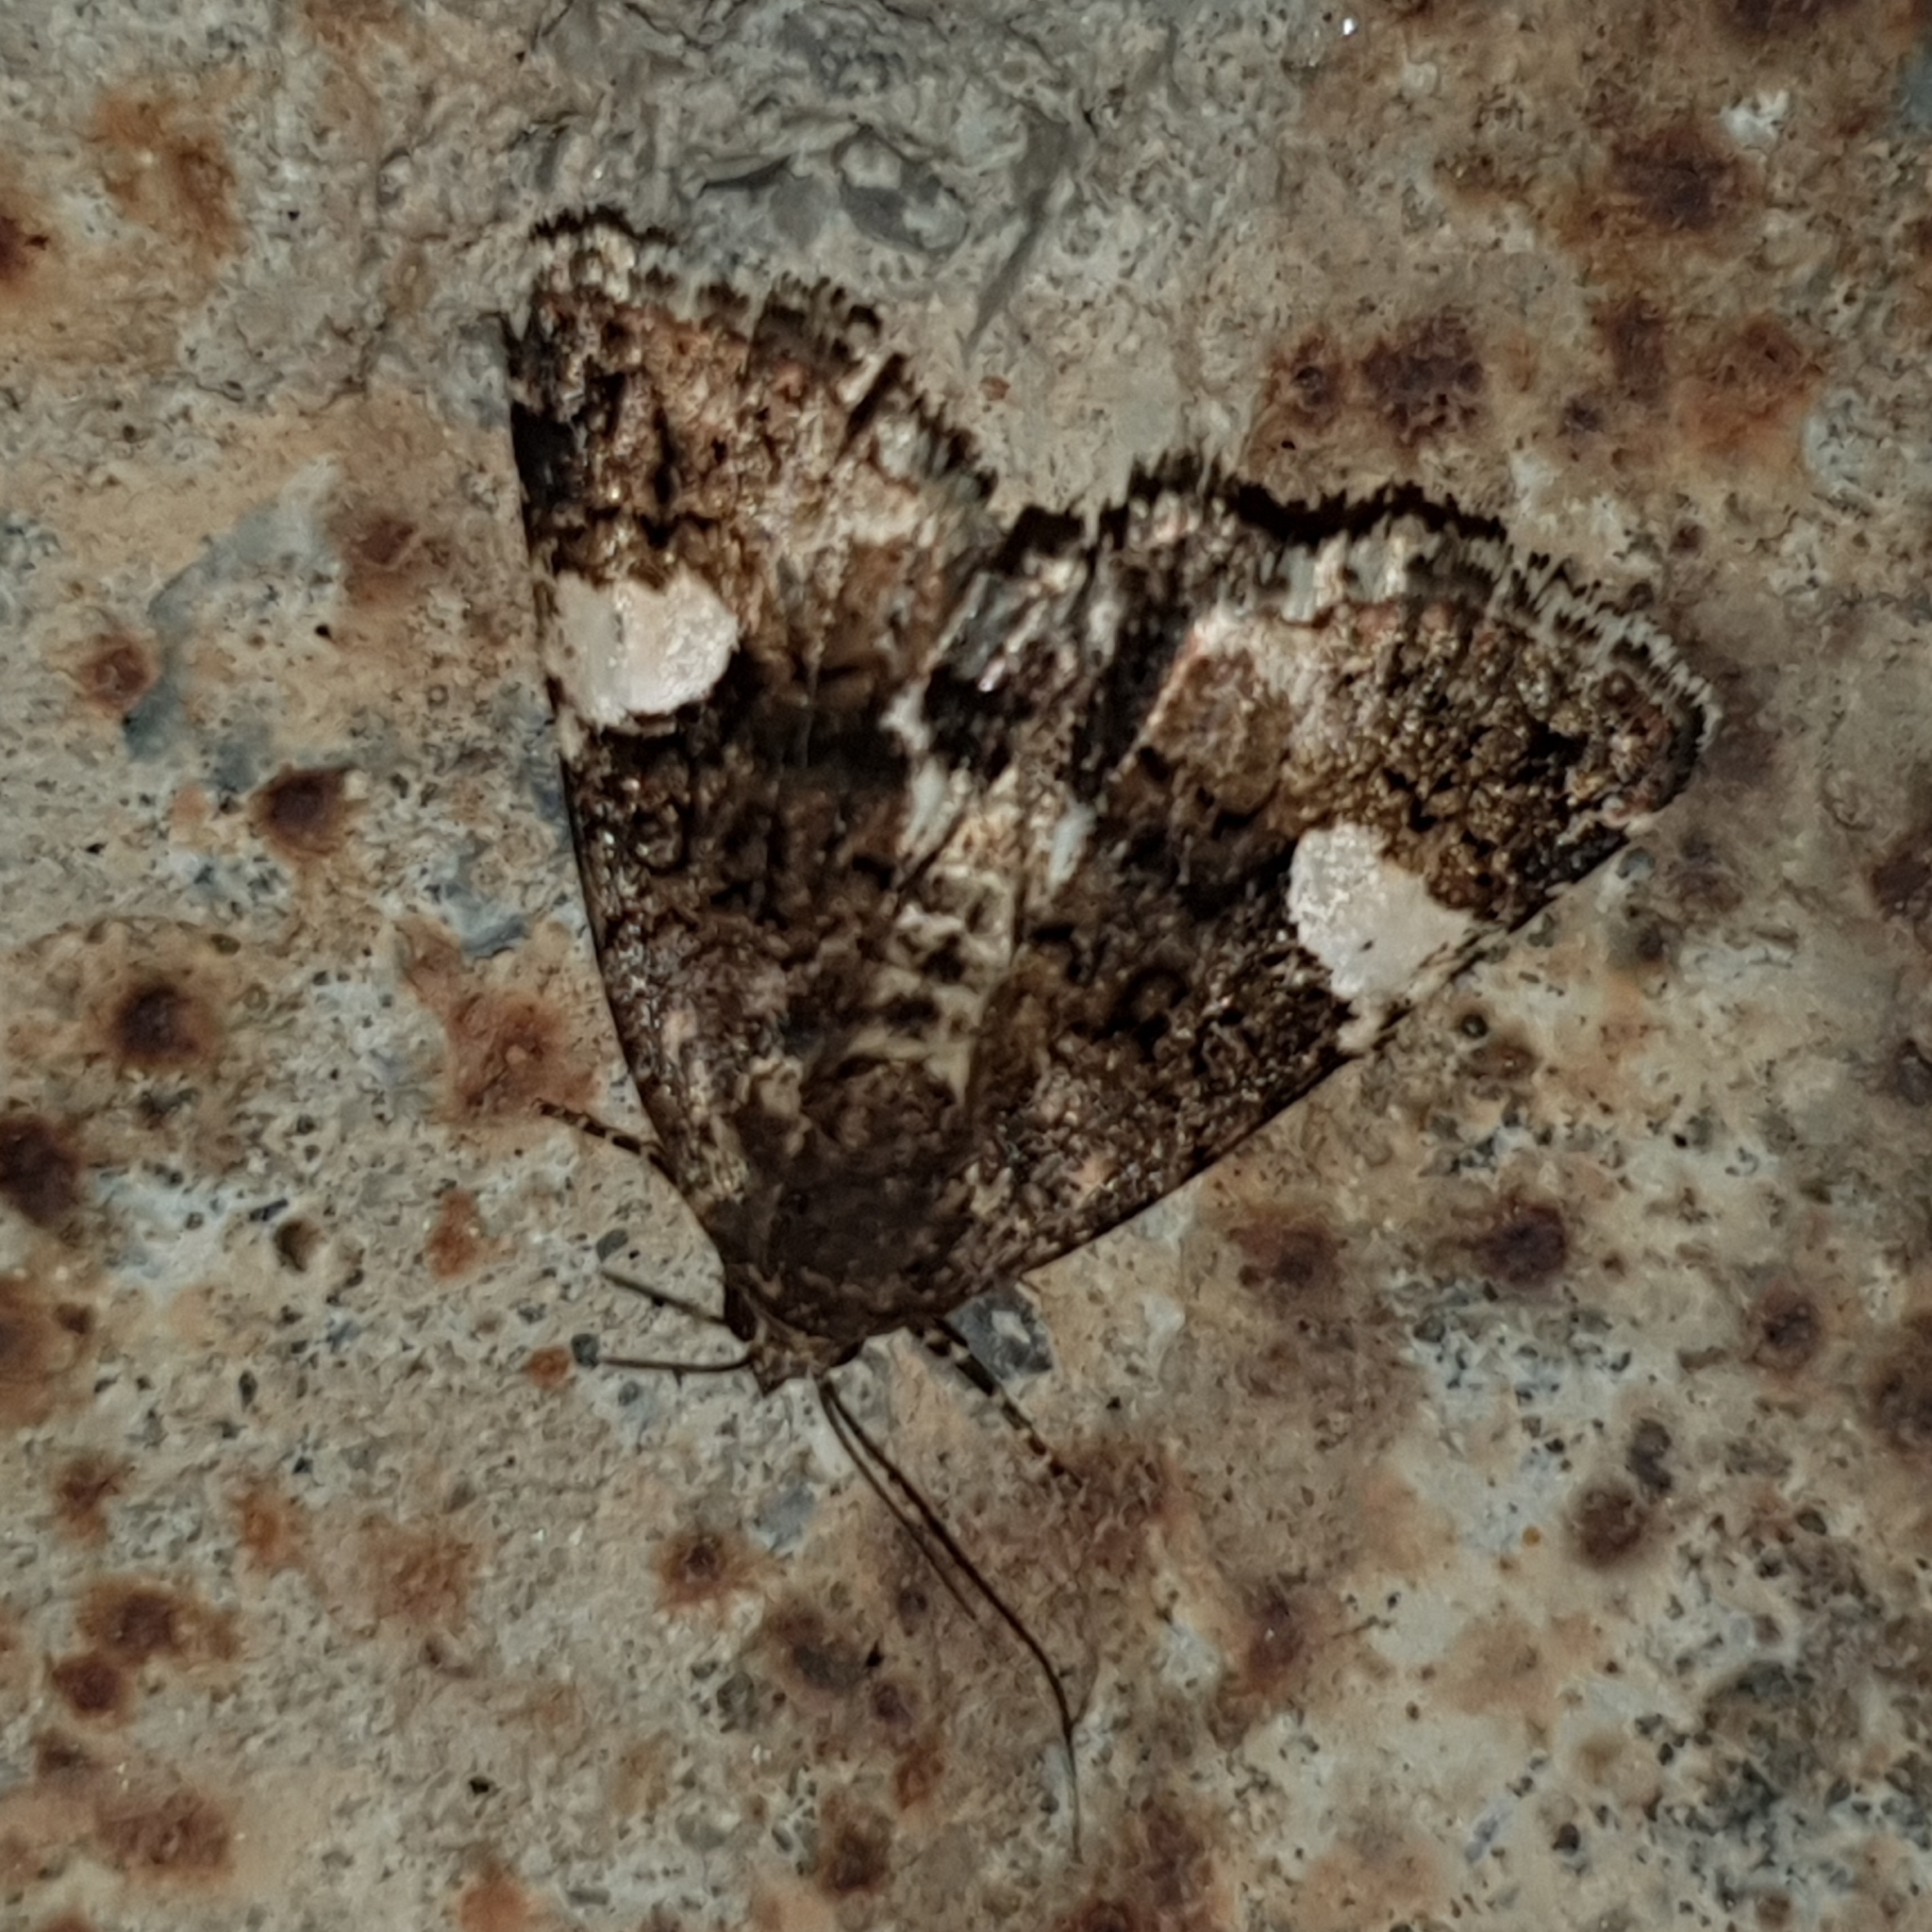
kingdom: Animalia
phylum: Arthropoda
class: Insecta
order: Lepidoptera
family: Erebidae
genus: Tyta
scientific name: Tyta luctuosa
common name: Four-spotted
